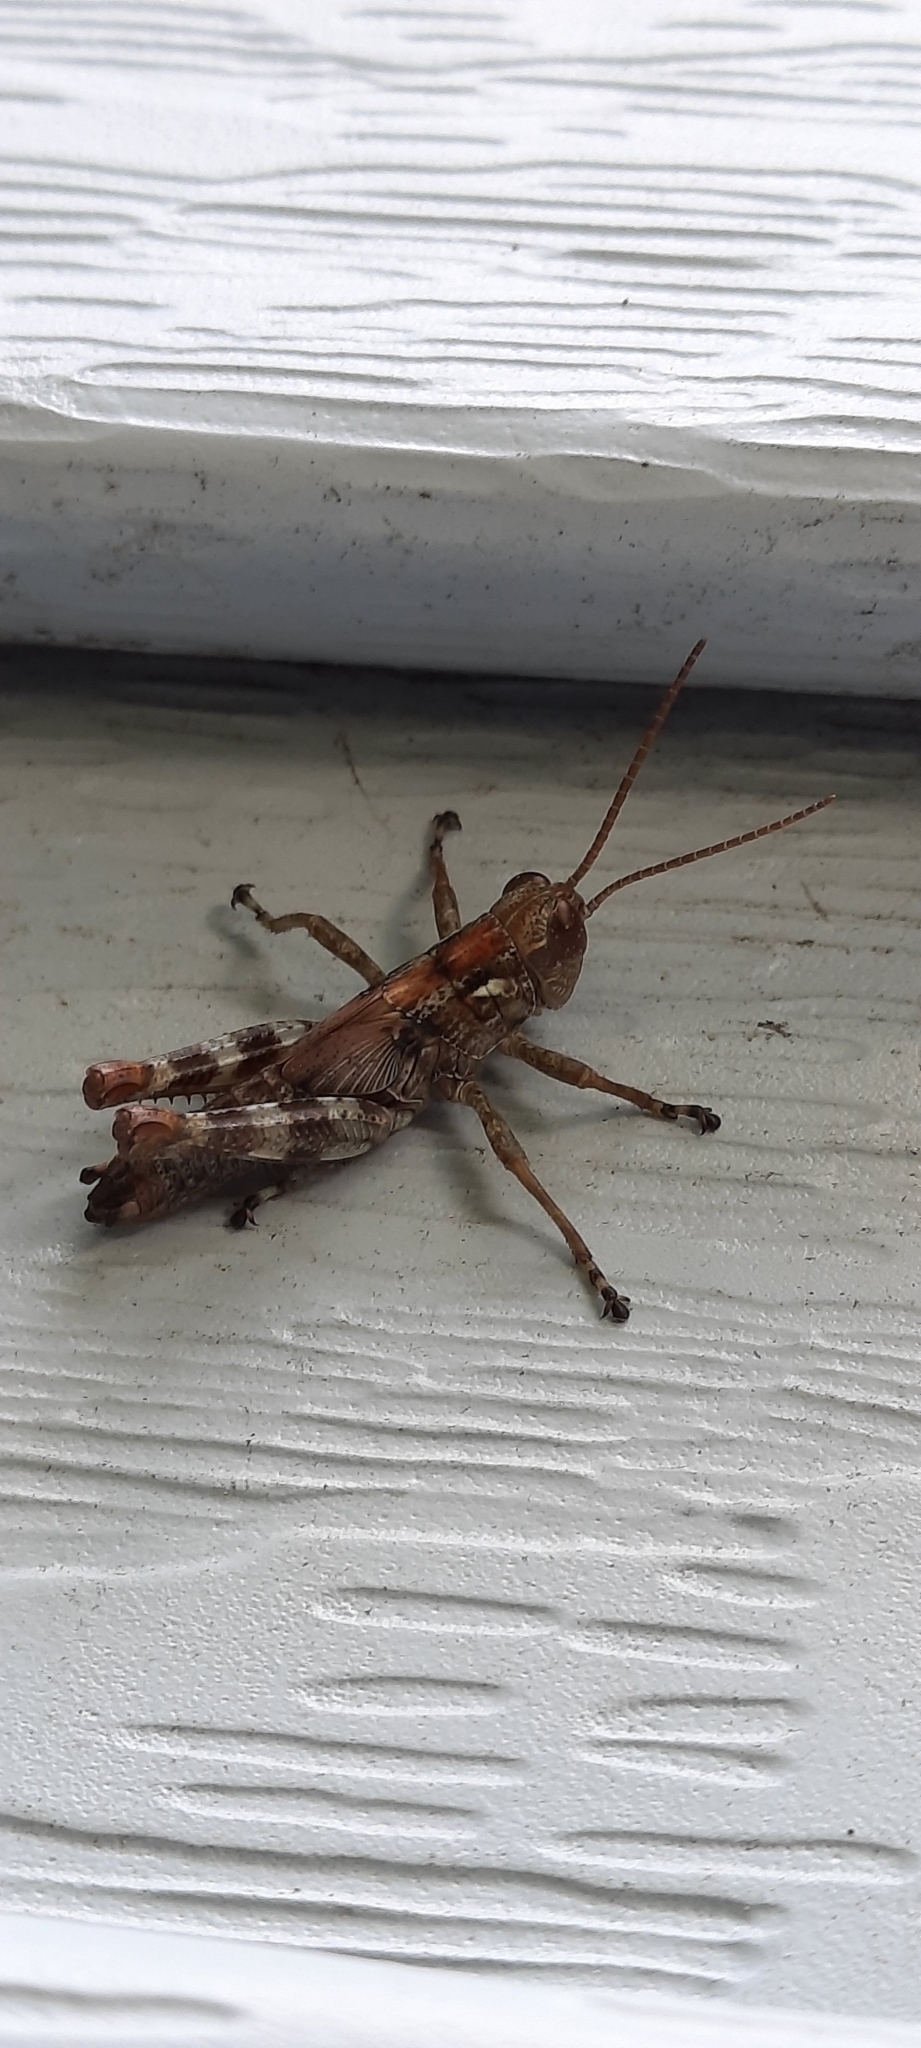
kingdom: Animalia
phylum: Arthropoda
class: Insecta
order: Orthoptera
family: Acrididae
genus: Melanoplus
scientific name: Melanoplus punctulatus
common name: Pine-tree spur-throat grasshopper
